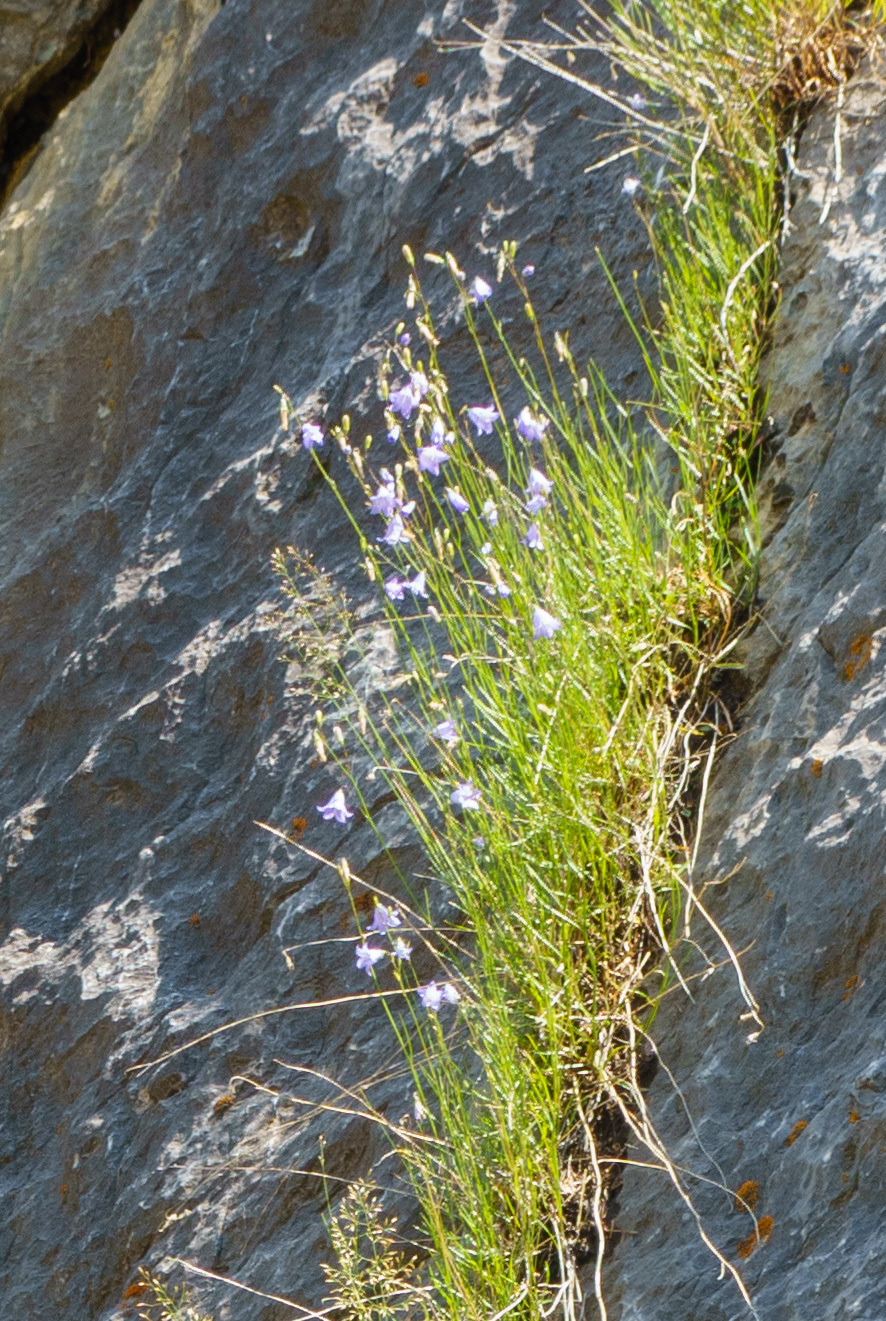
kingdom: Plantae
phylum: Tracheophyta
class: Magnoliopsida
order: Asterales
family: Campanulaceae
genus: Campanula
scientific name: Campanula alaskana
